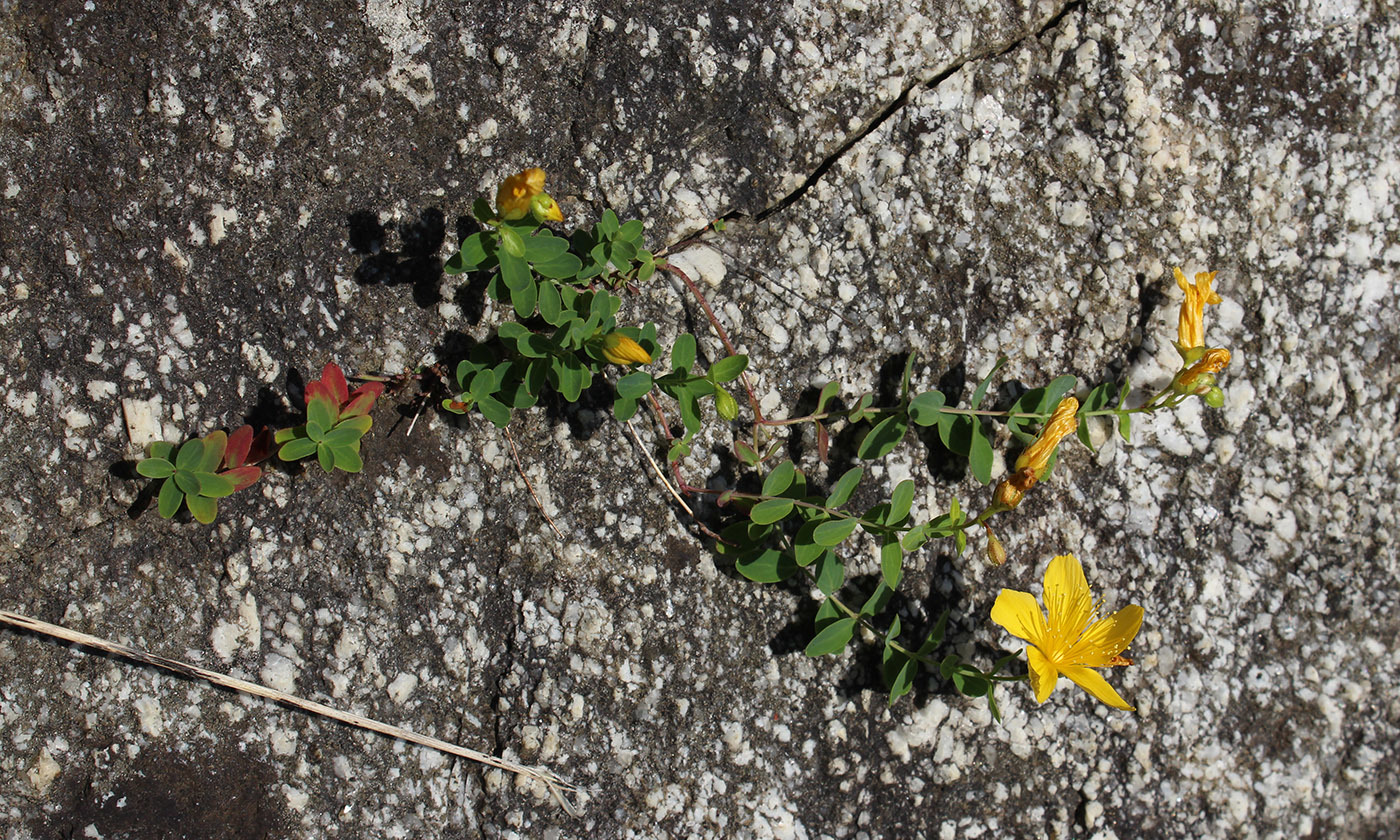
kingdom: Plantae
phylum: Tracheophyta
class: Magnoliopsida
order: Malpighiales
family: Hypericaceae
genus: Hypericum
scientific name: Hypericum nummularioides
